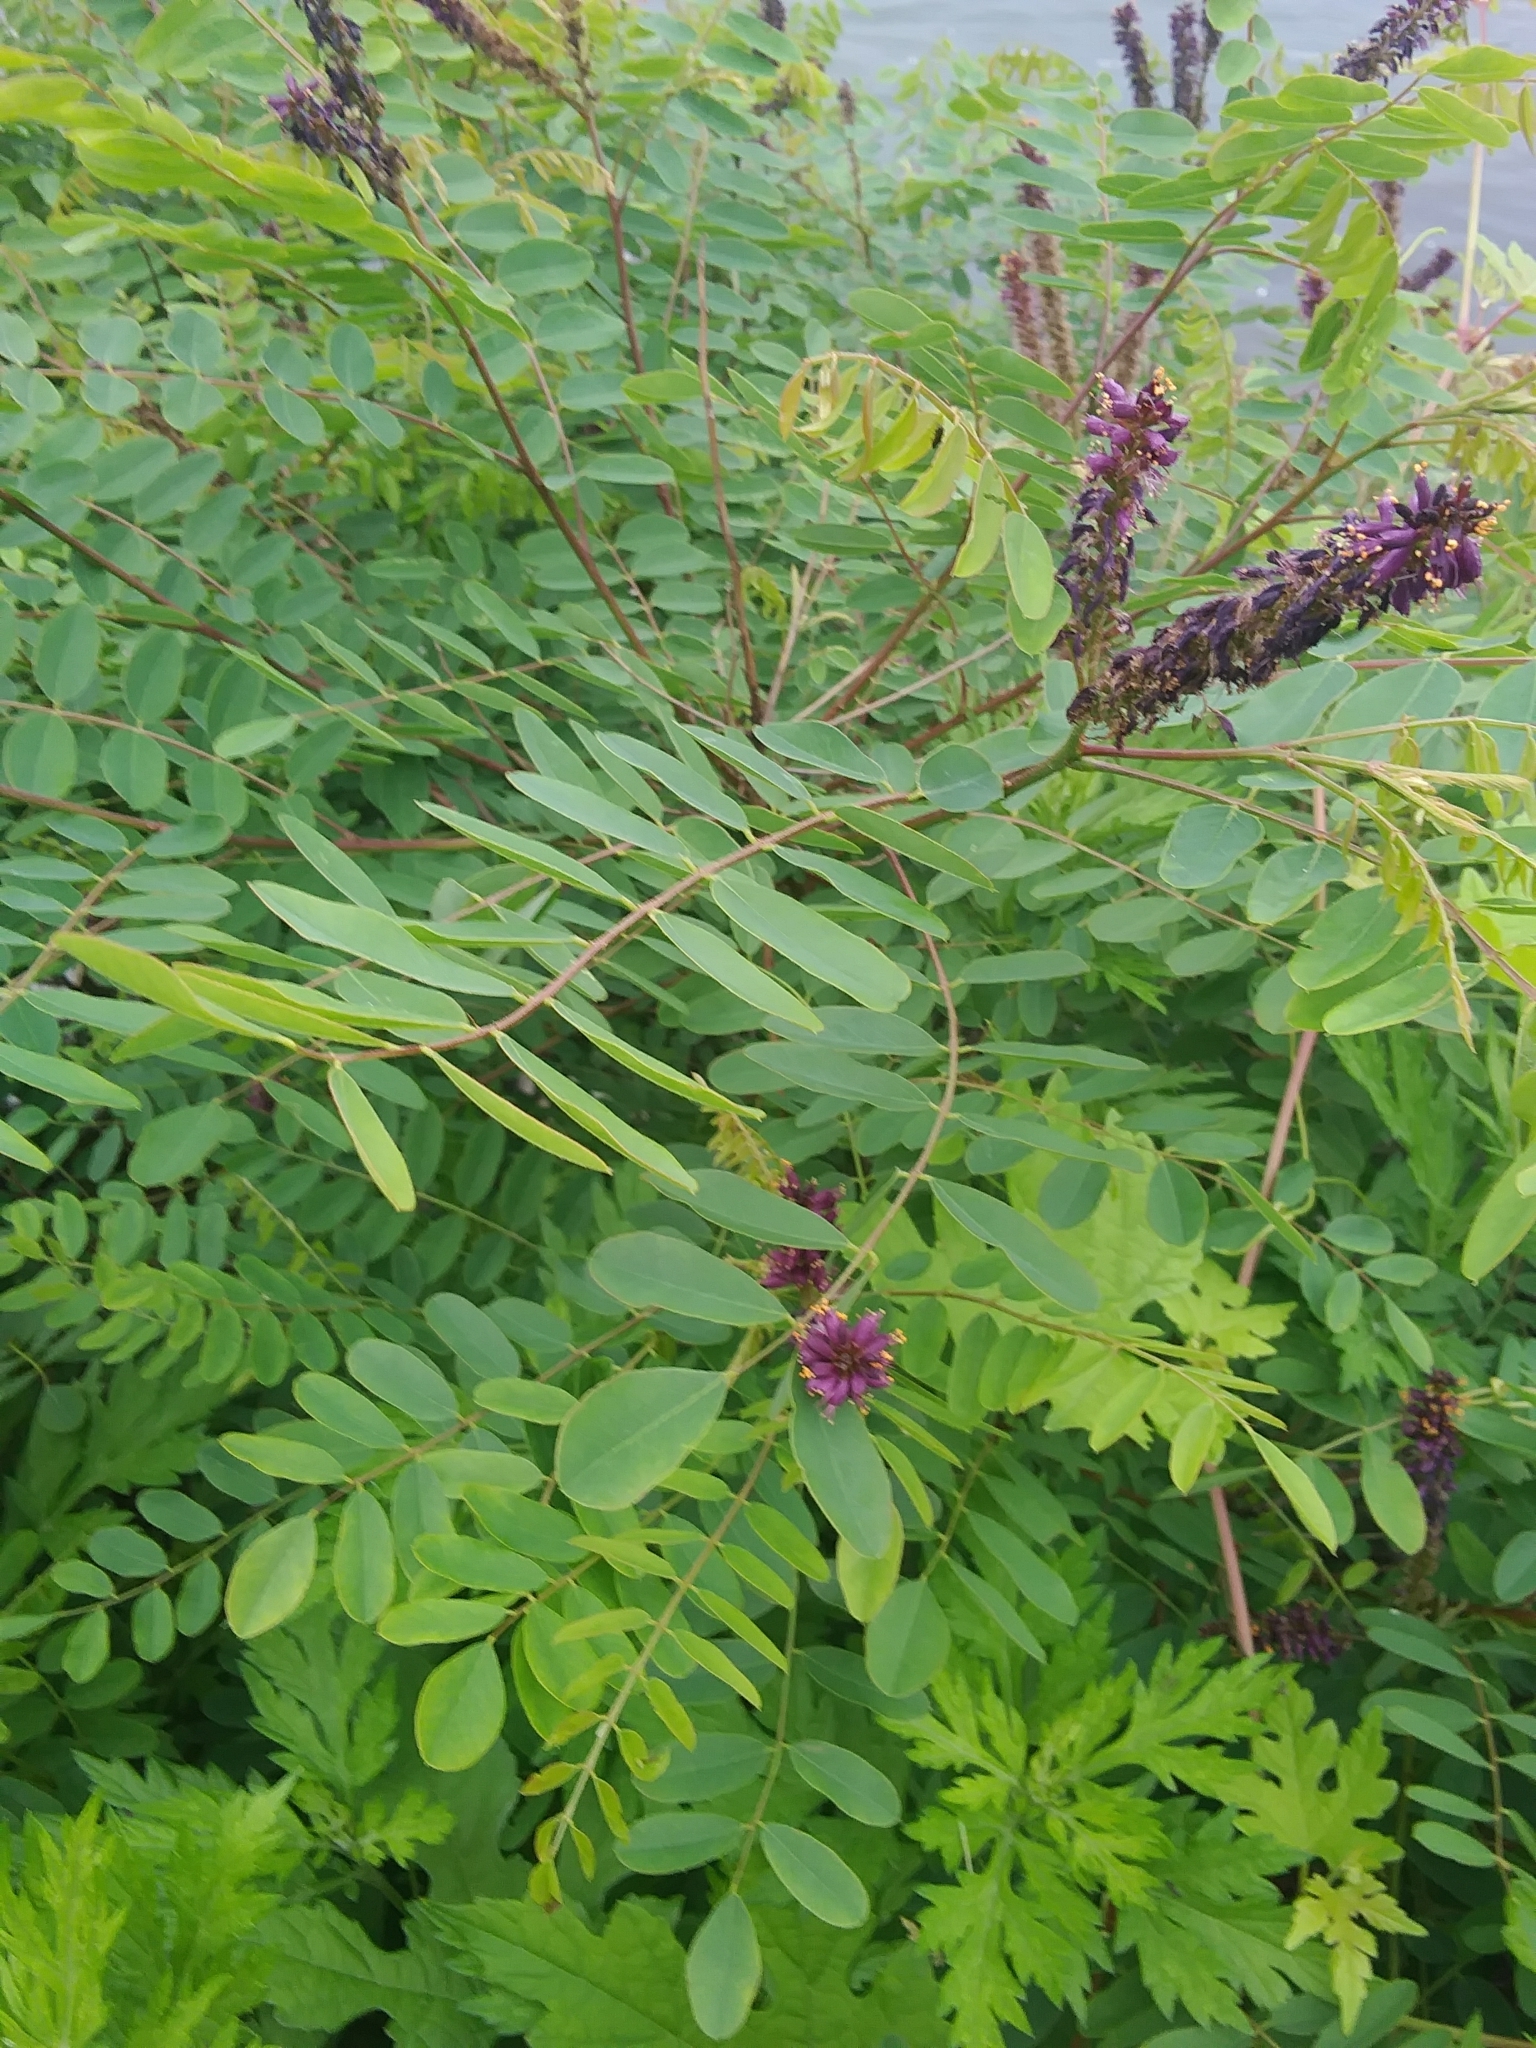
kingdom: Plantae
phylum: Tracheophyta
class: Magnoliopsida
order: Fabales
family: Fabaceae
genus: Amorpha
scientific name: Amorpha fruticosa
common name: False indigo
